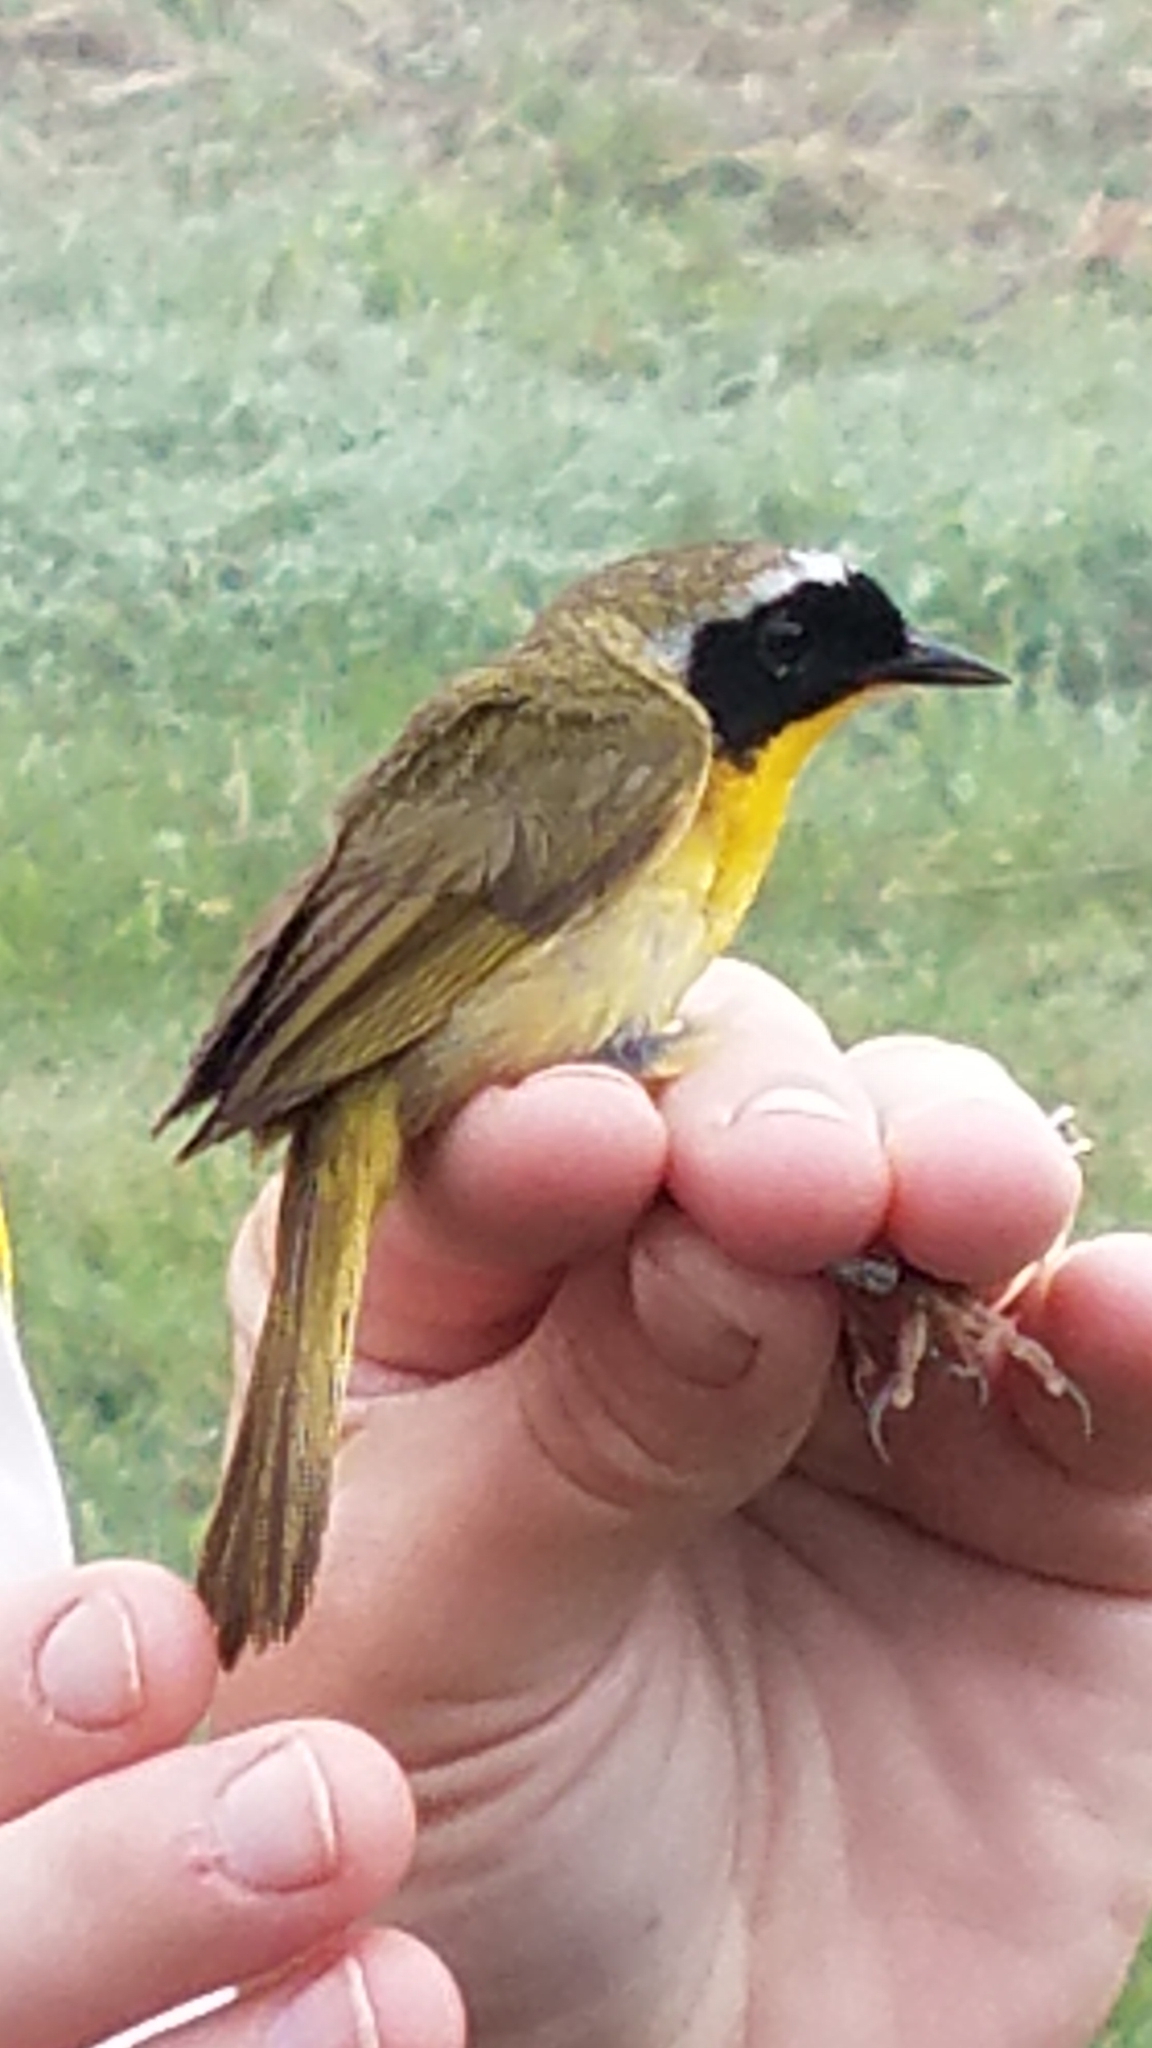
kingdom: Animalia
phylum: Chordata
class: Aves
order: Passeriformes
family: Parulidae
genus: Geothlypis
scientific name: Geothlypis trichas
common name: Common yellowthroat
